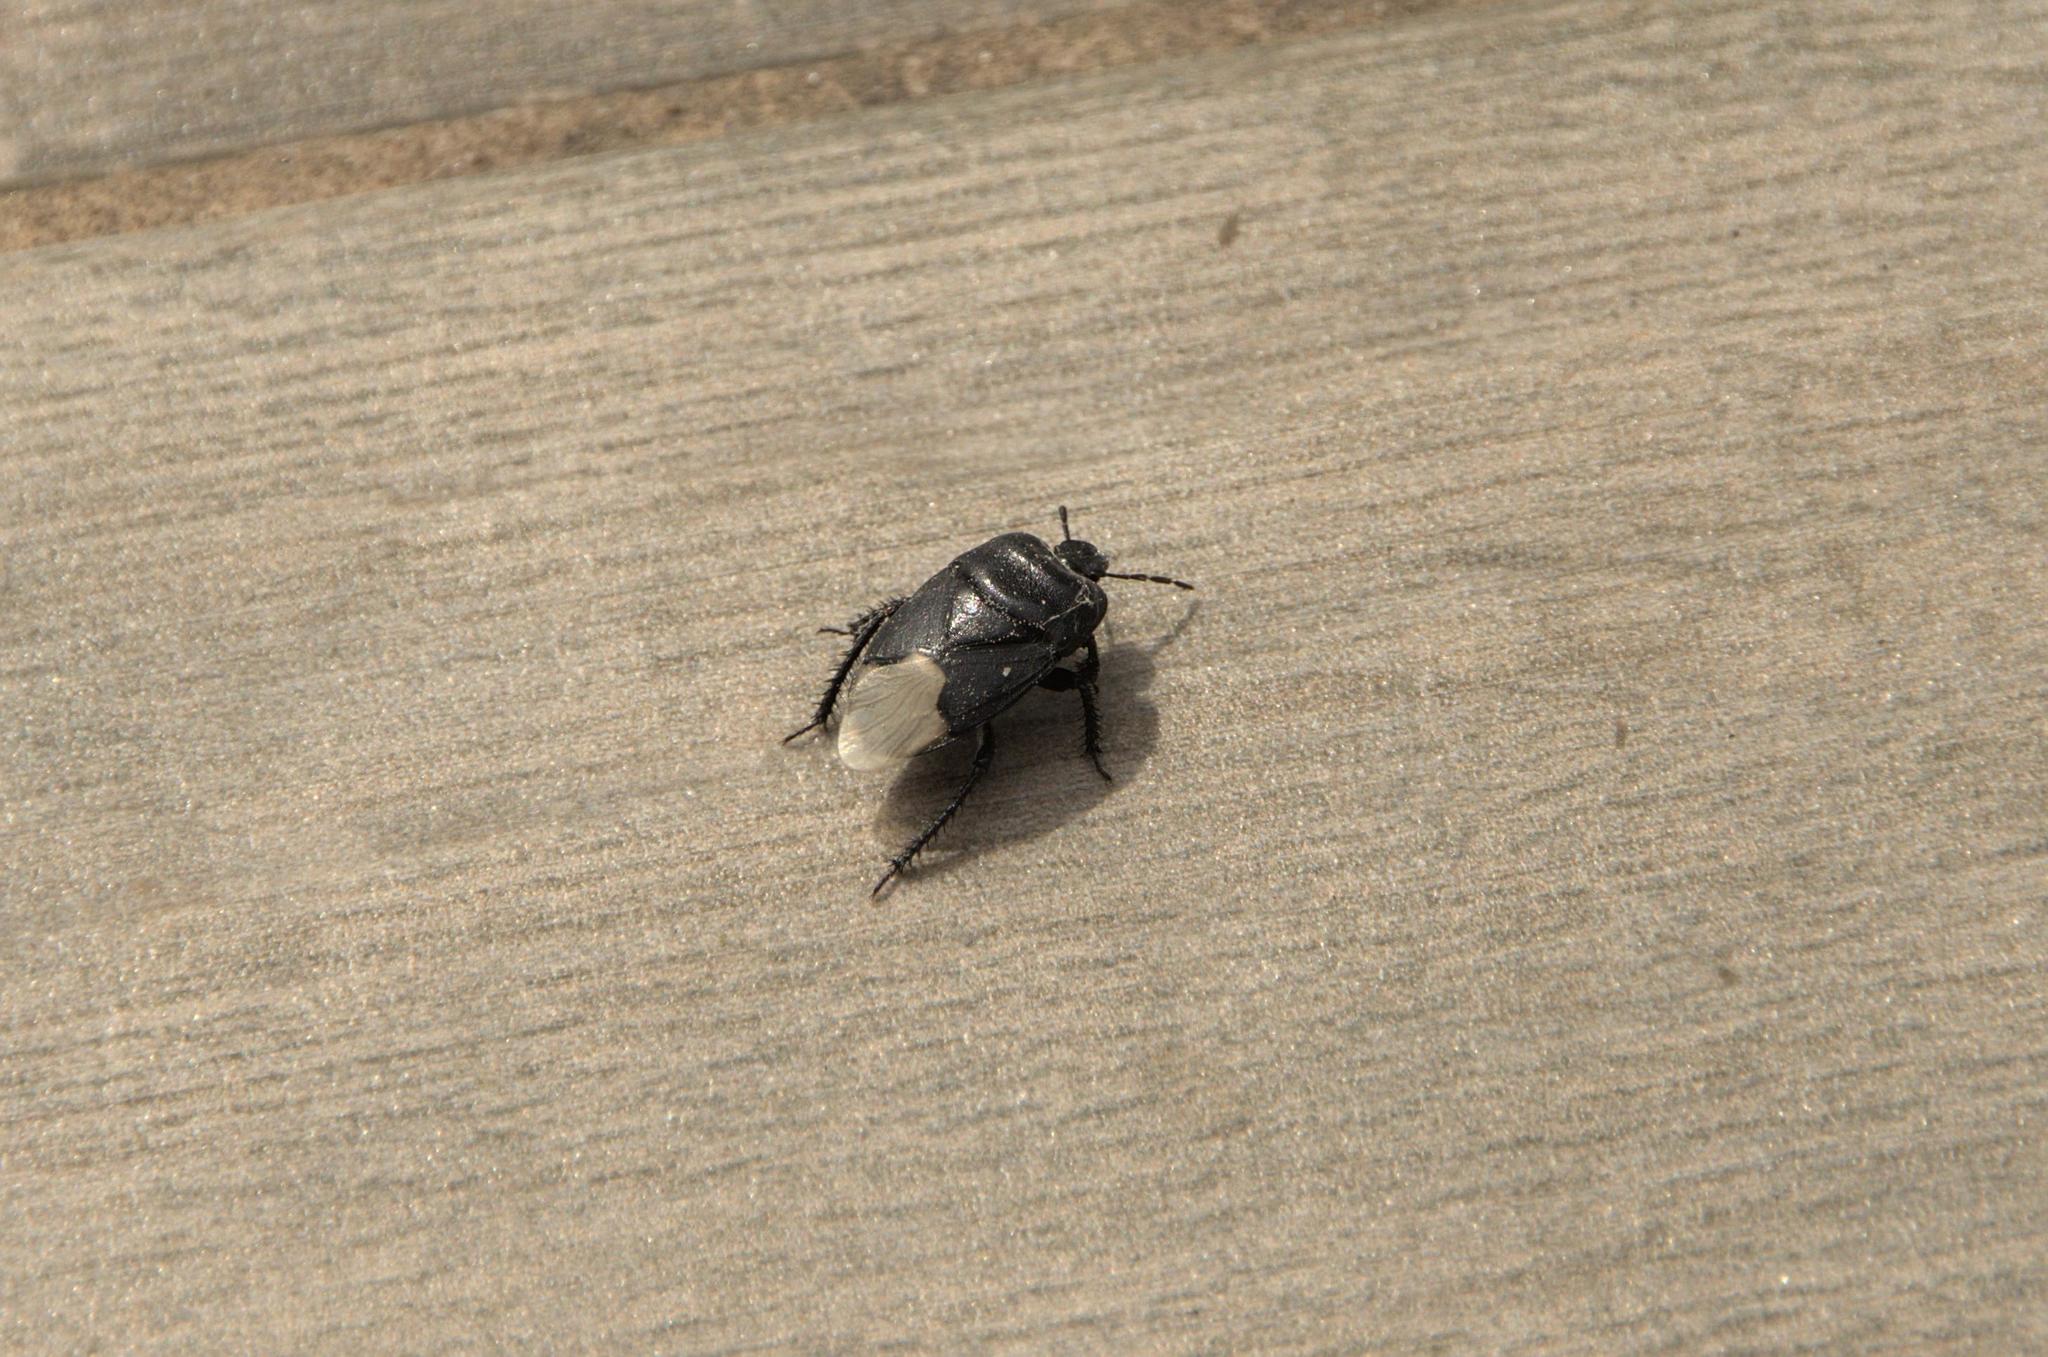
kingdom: Animalia
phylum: Arthropoda
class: Insecta
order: Hemiptera
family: Cydnidae
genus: Cydnus
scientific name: Cydnus aterrimus
